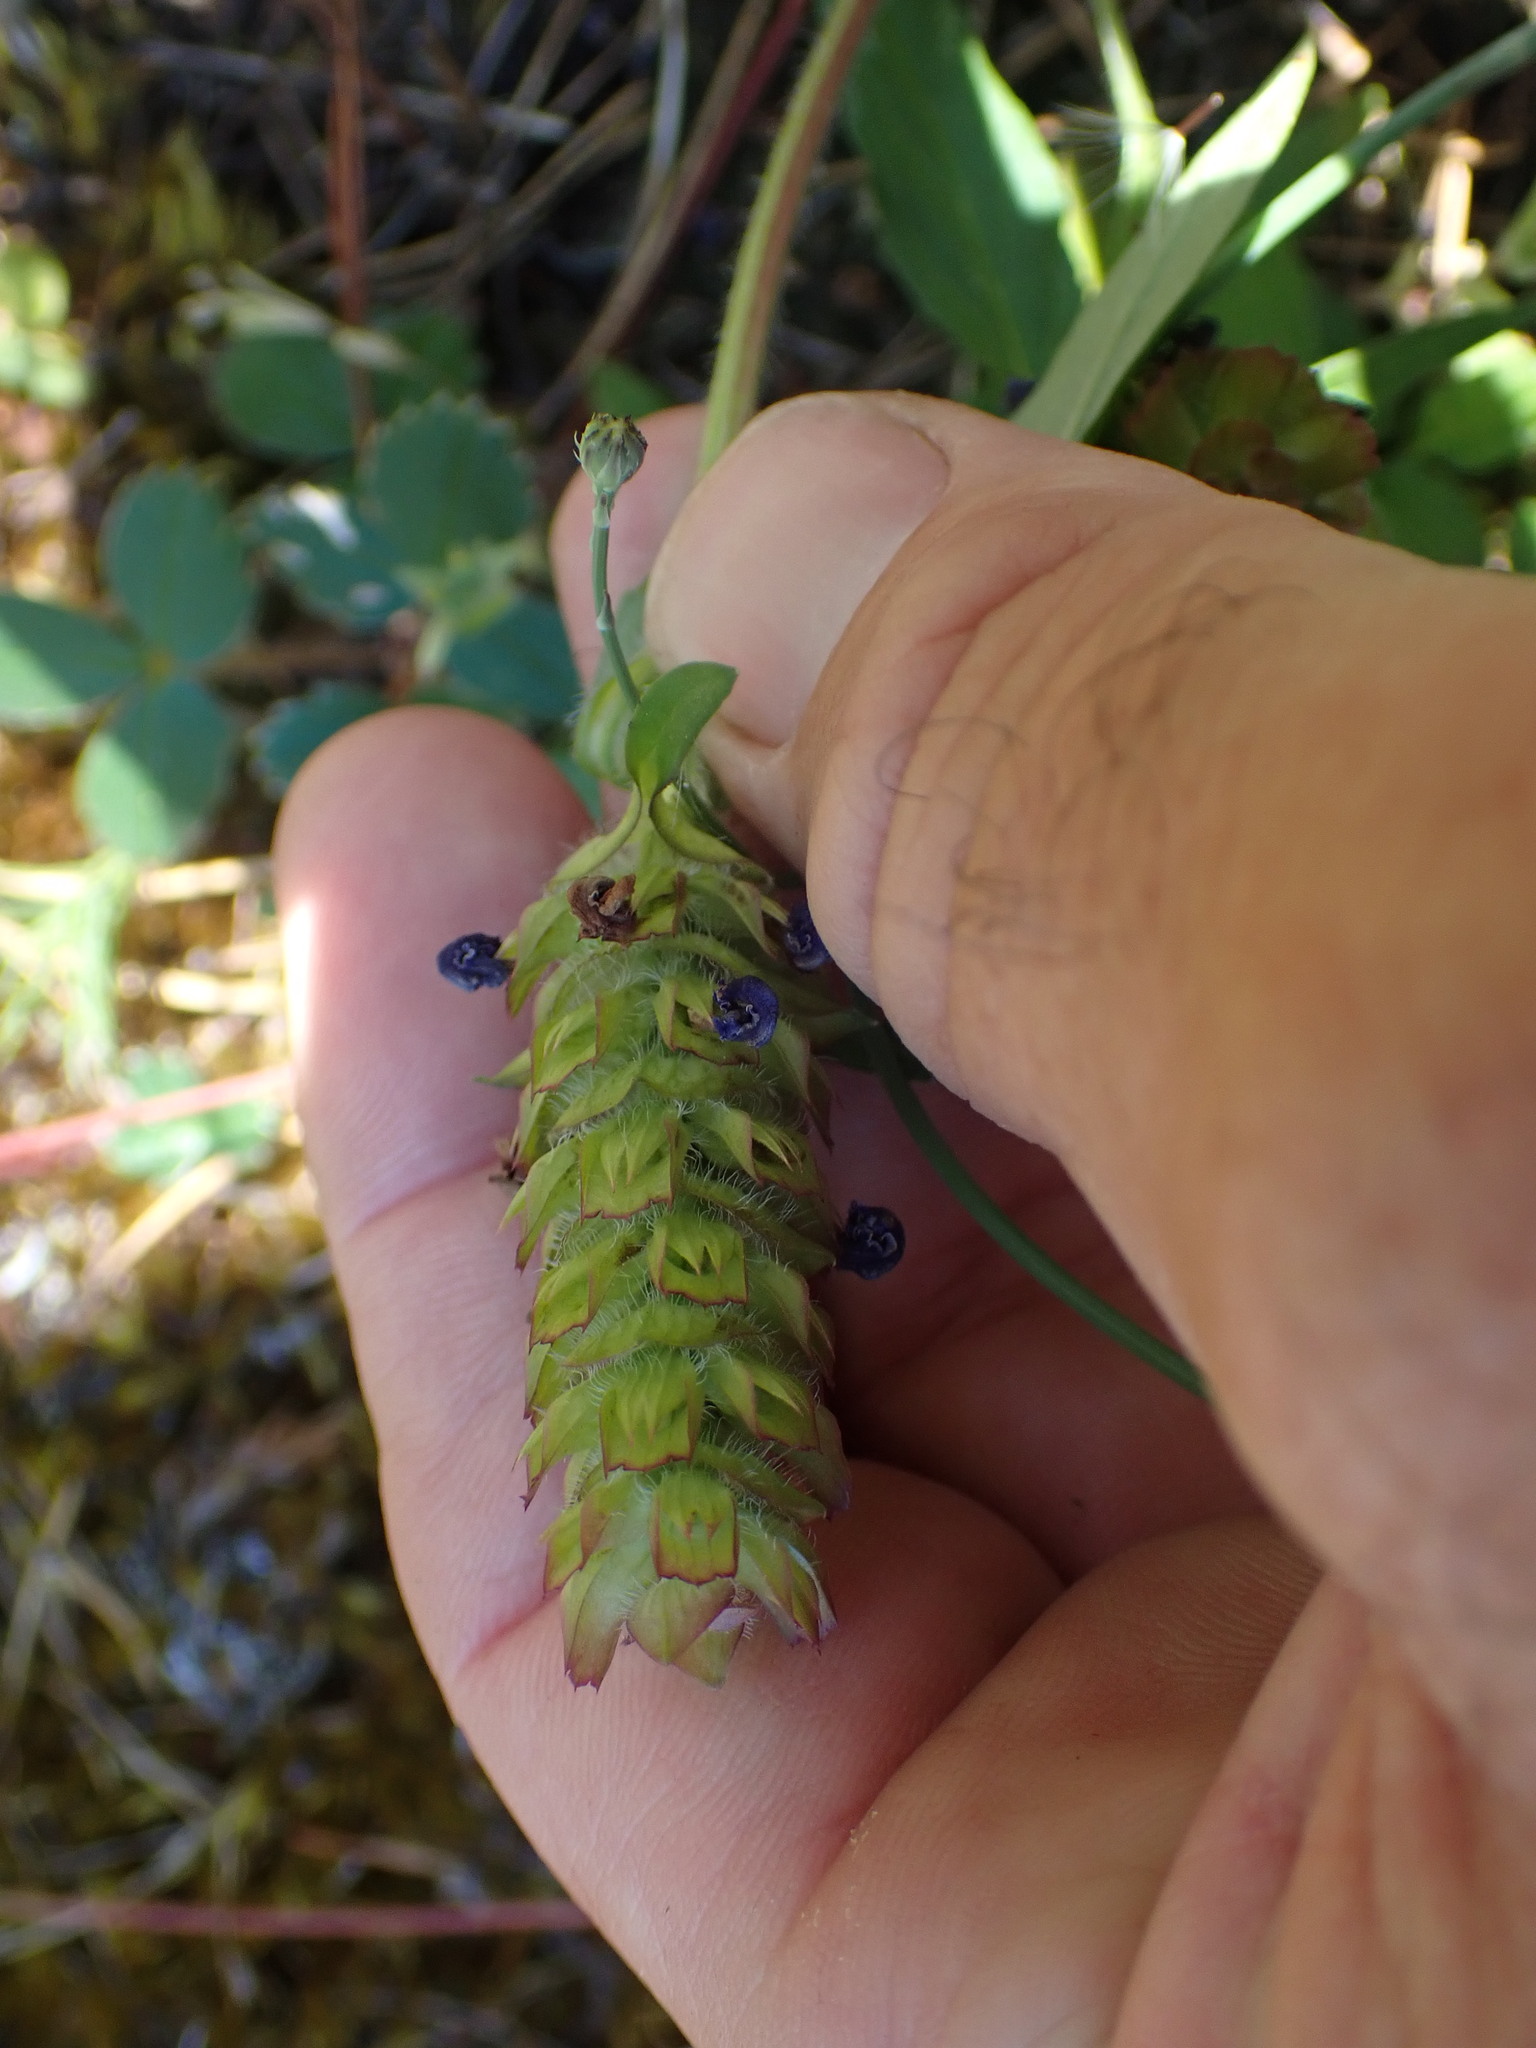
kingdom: Plantae
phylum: Tracheophyta
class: Magnoliopsida
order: Lamiales
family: Lamiaceae
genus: Prunella
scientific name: Prunella vulgaris
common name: Heal-all
